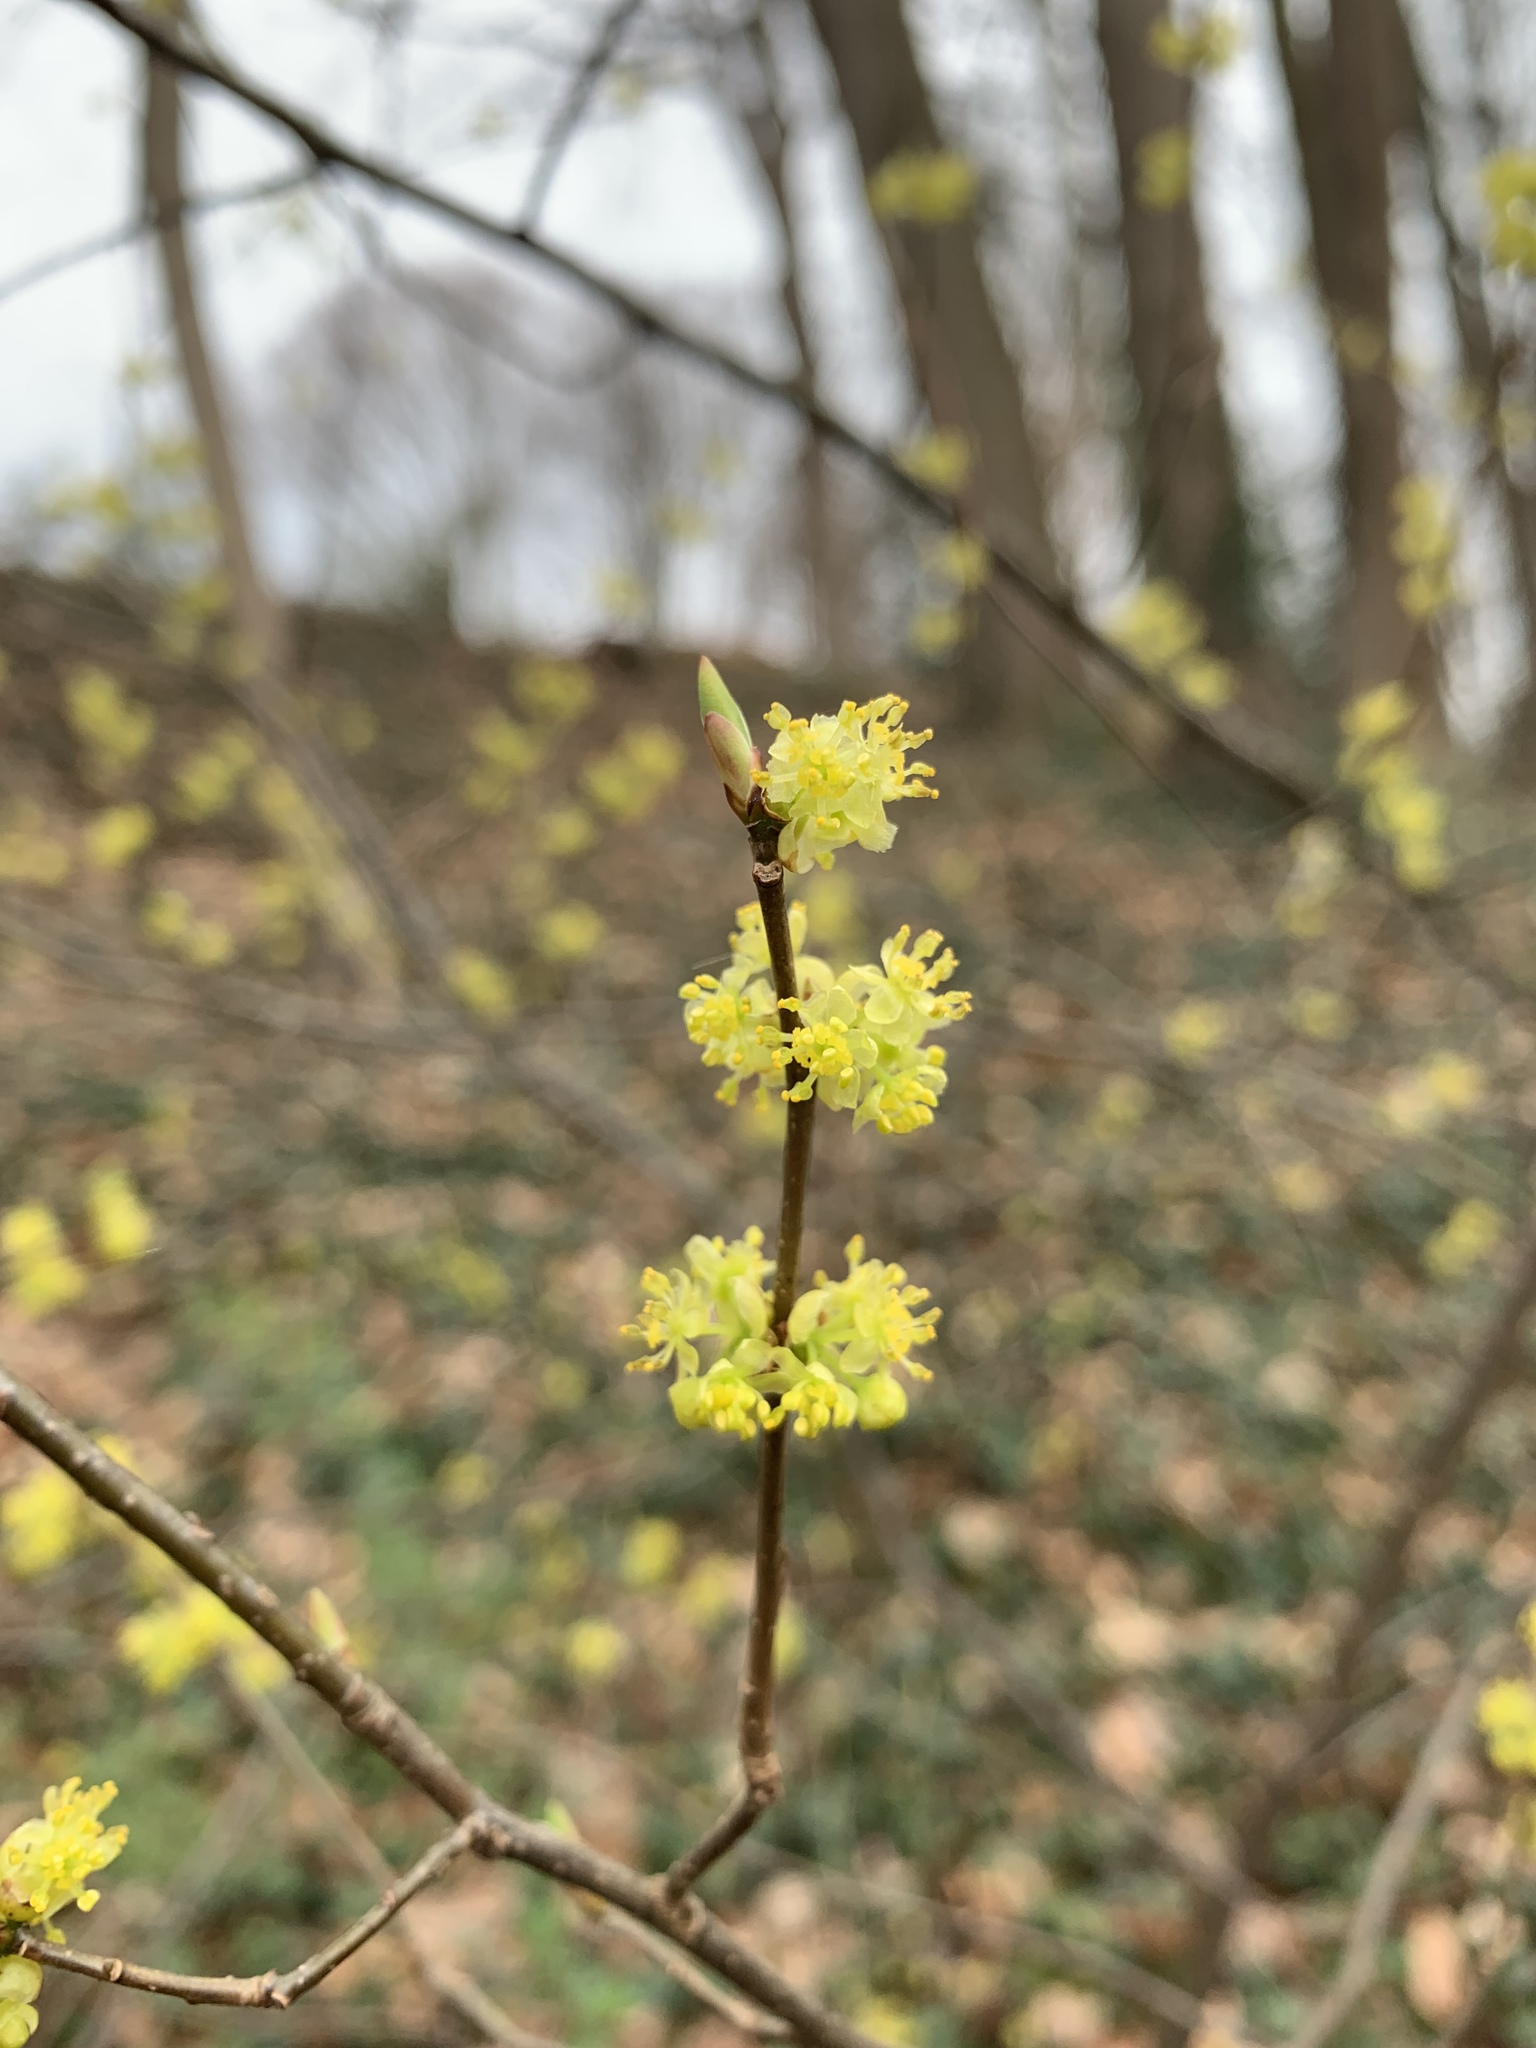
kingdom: Plantae
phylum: Tracheophyta
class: Magnoliopsida
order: Laurales
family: Lauraceae
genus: Lindera
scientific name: Lindera benzoin
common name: Spicebush
